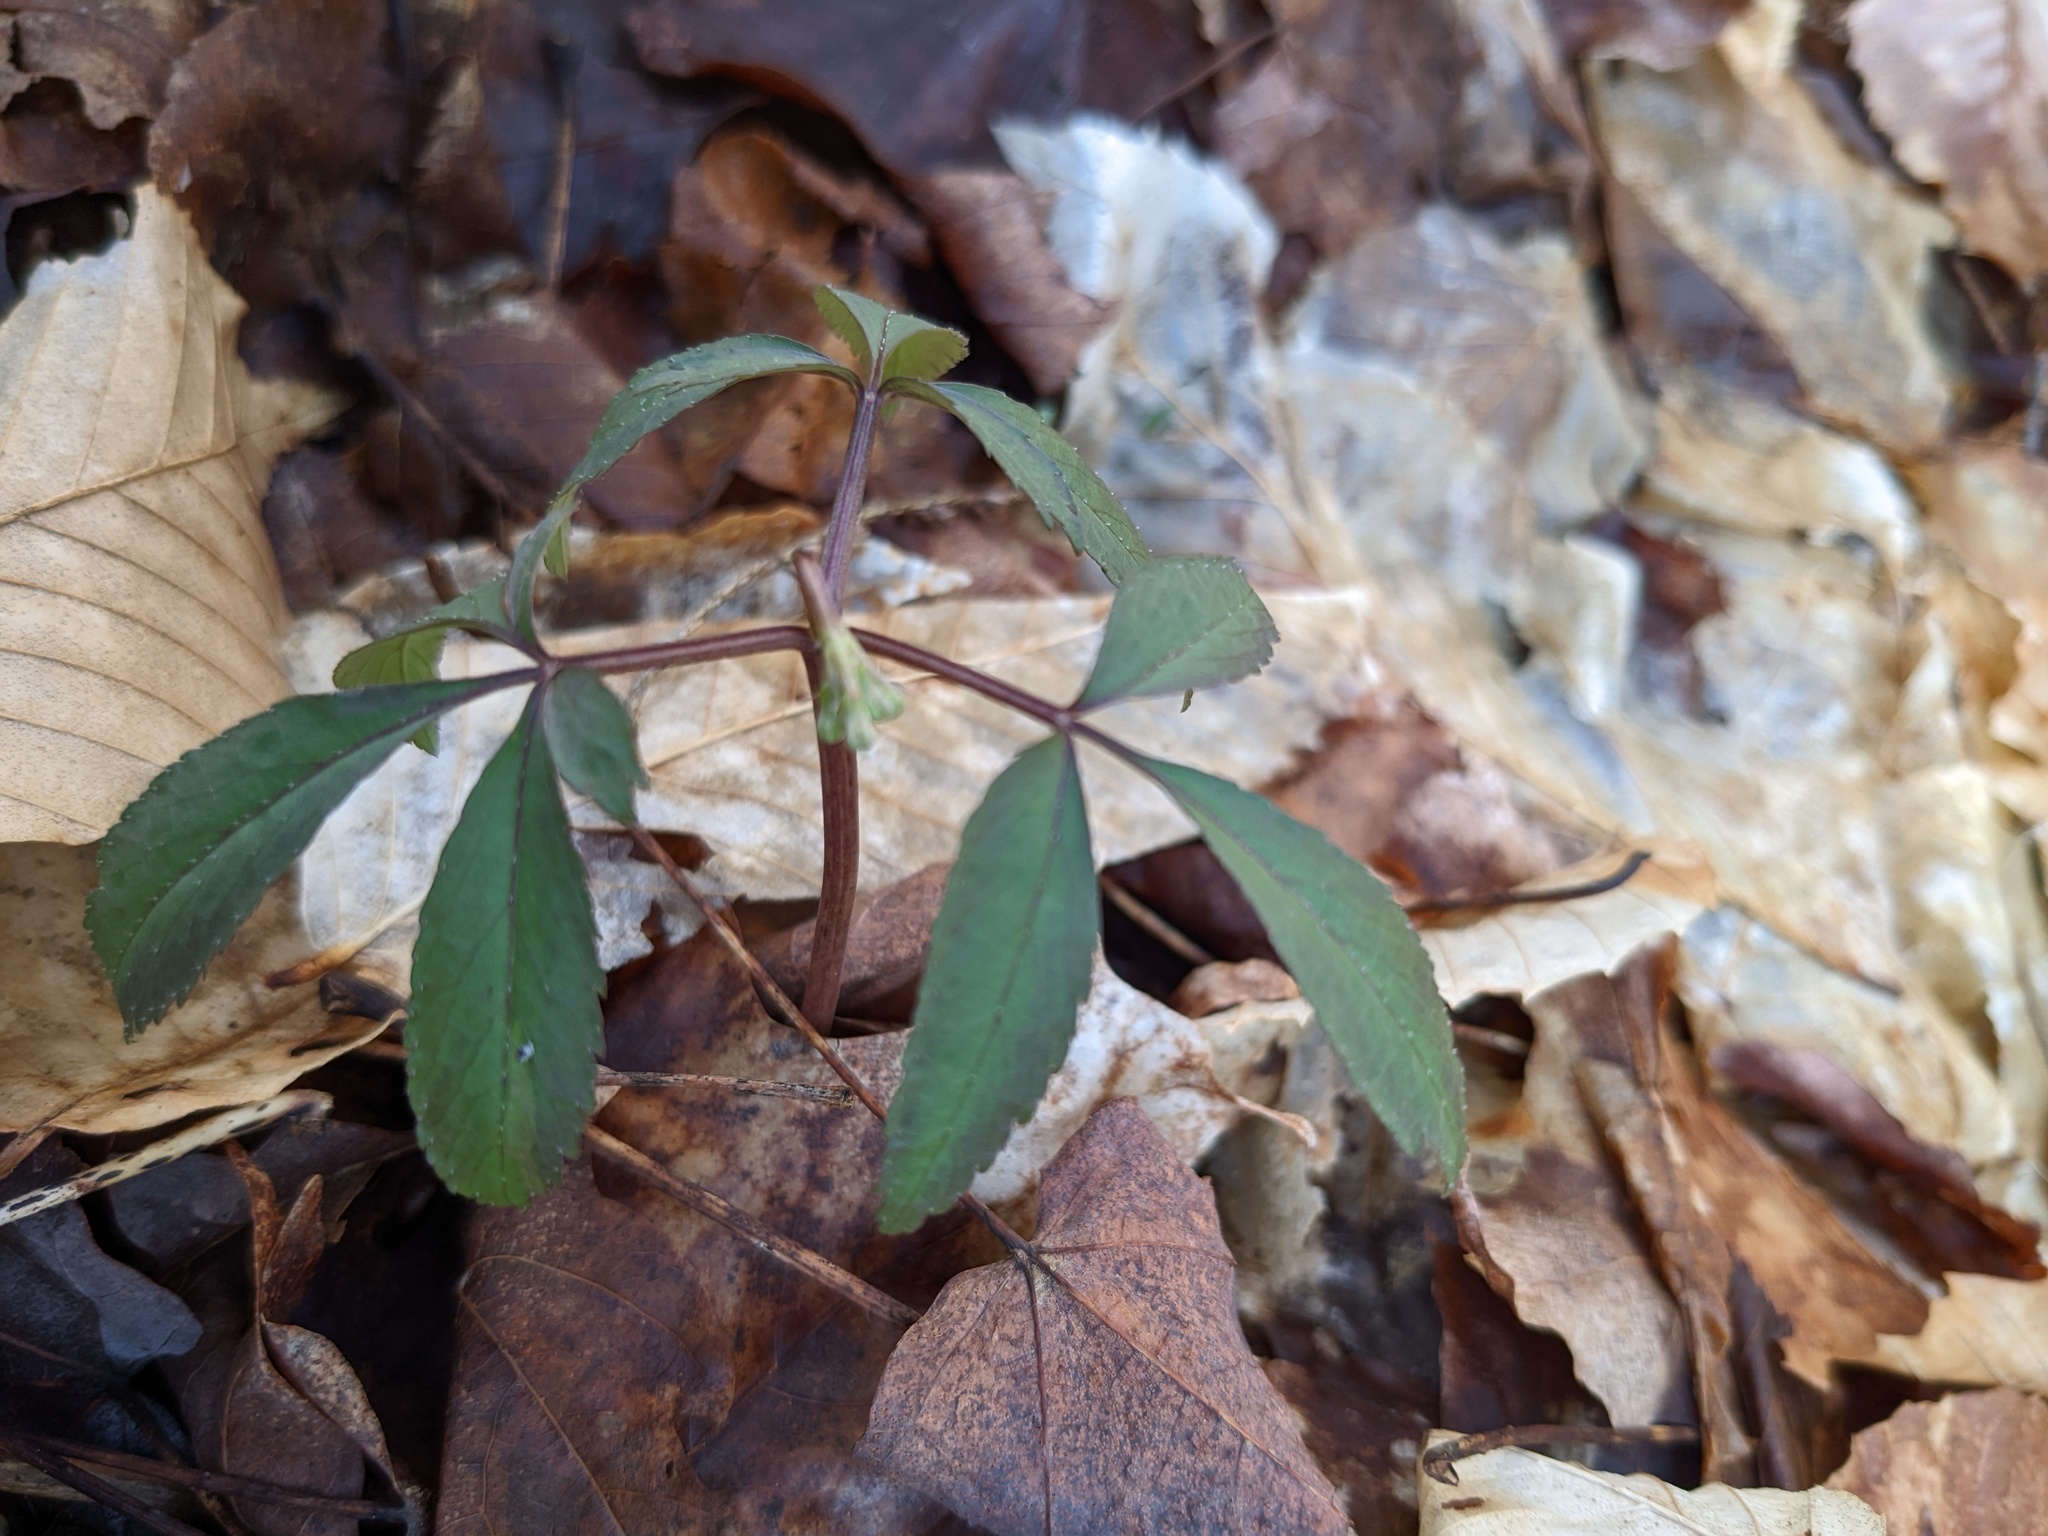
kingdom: Plantae
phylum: Tracheophyta
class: Magnoliopsida
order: Apiales
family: Araliaceae
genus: Panax
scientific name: Panax trifolius
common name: Dwarf ginseng
